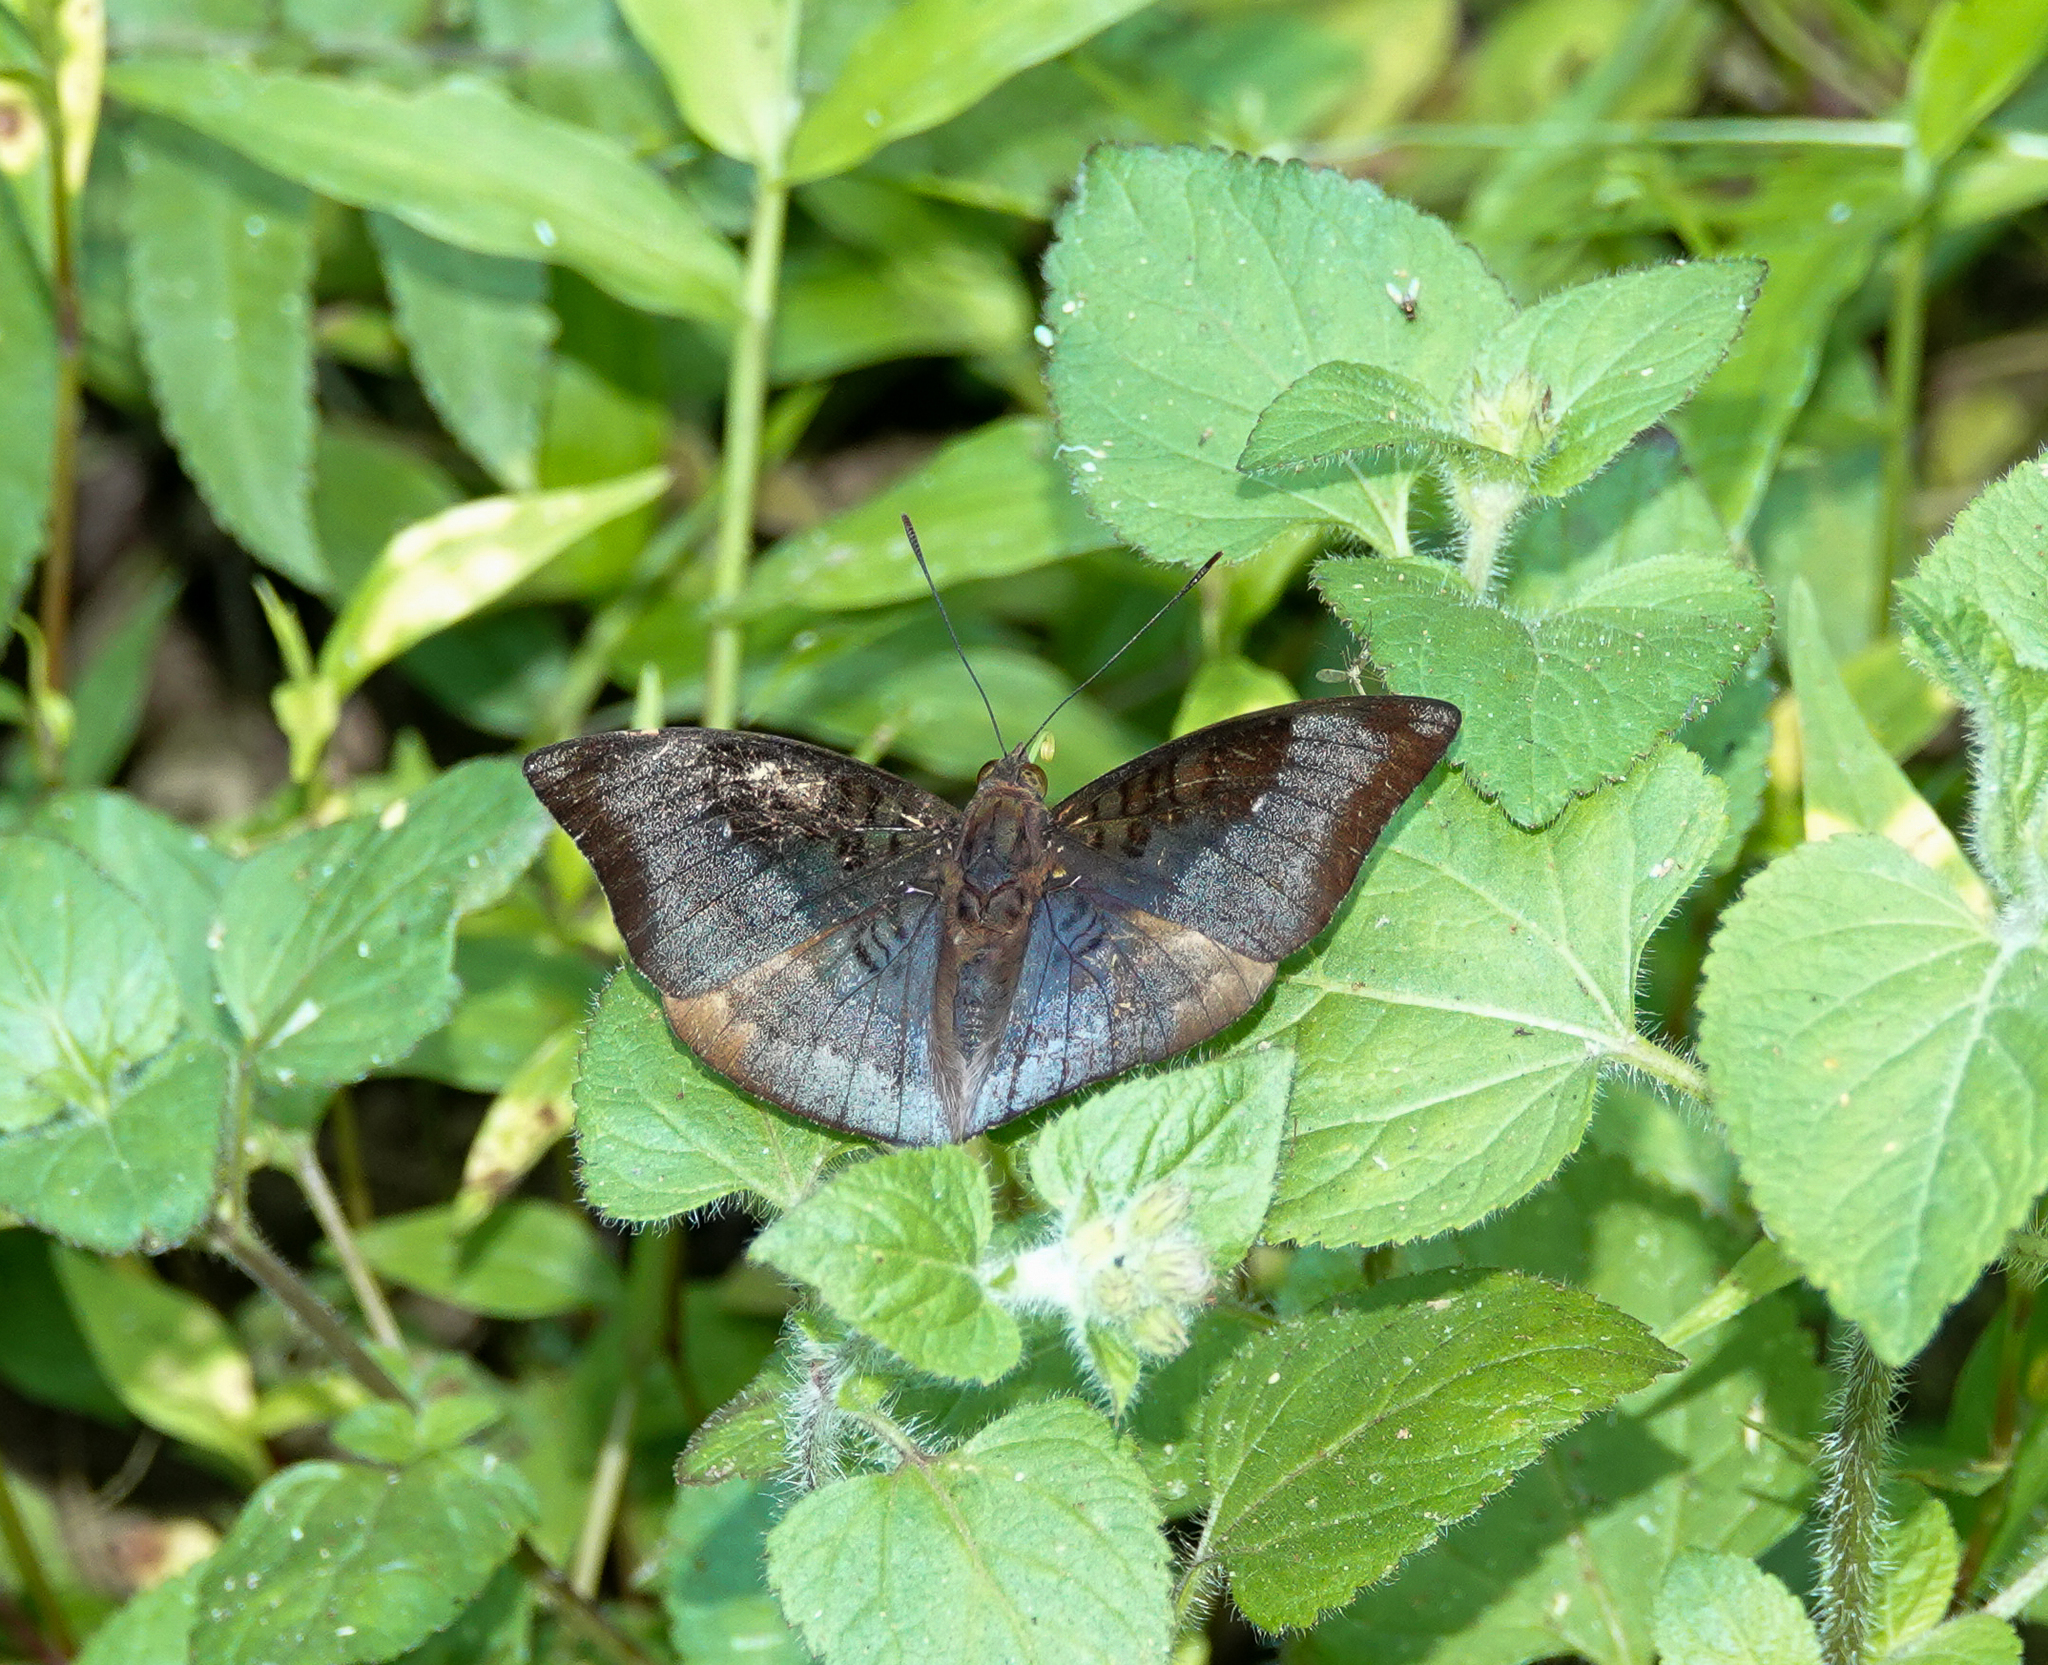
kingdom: Animalia
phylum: Arthropoda
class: Insecta
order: Lepidoptera
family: Nymphalidae
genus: Euthalia
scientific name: Euthalia aconthea
